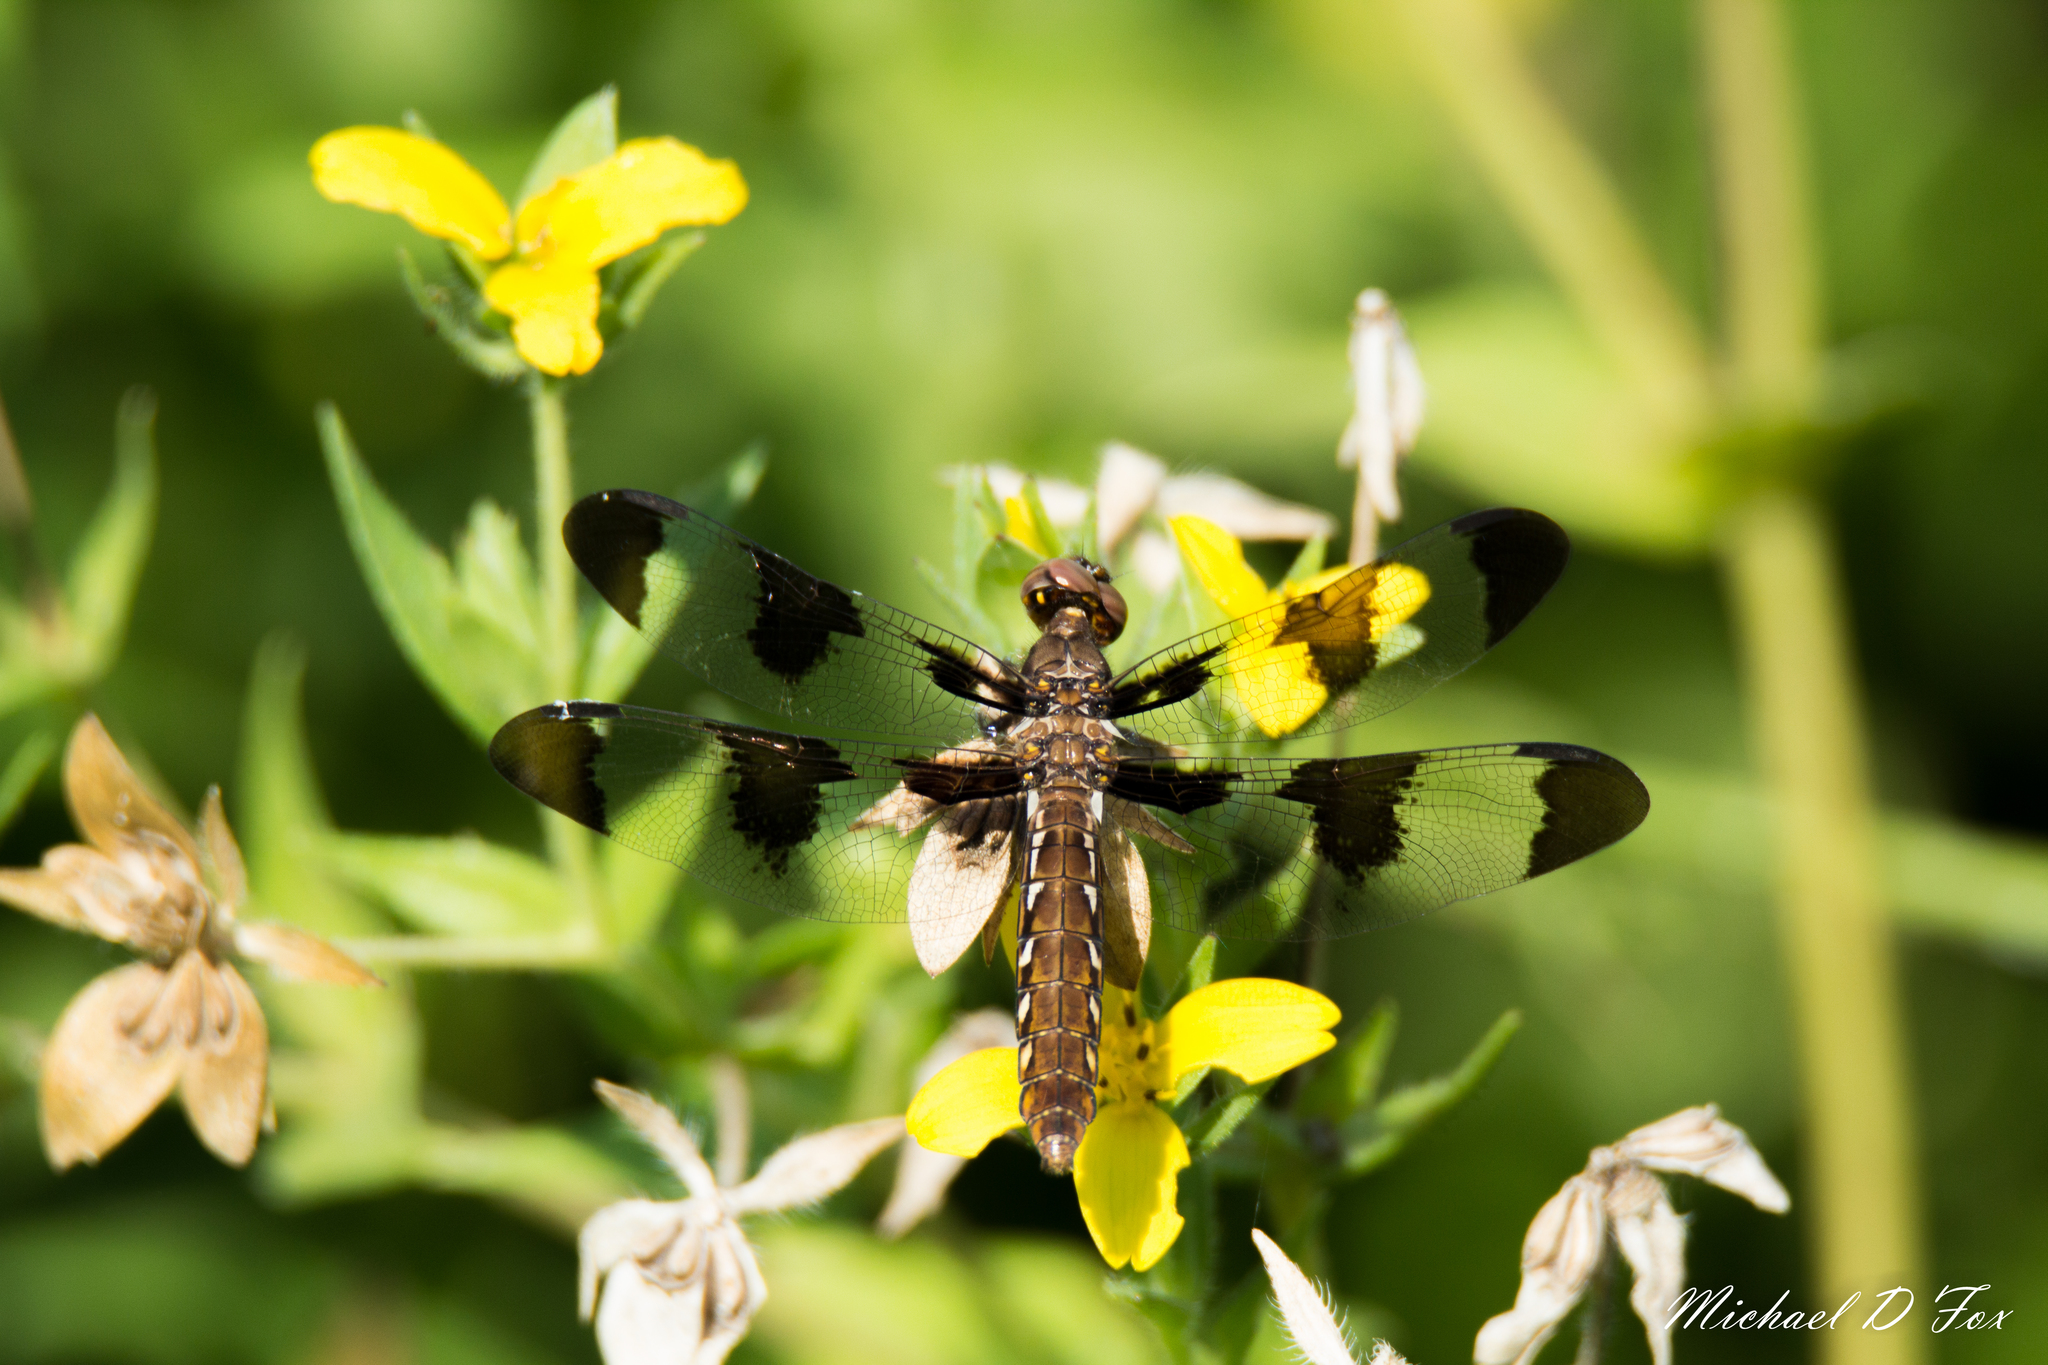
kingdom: Animalia
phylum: Arthropoda
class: Insecta
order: Odonata
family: Libellulidae
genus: Plathemis
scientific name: Plathemis lydia
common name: Common whitetail
